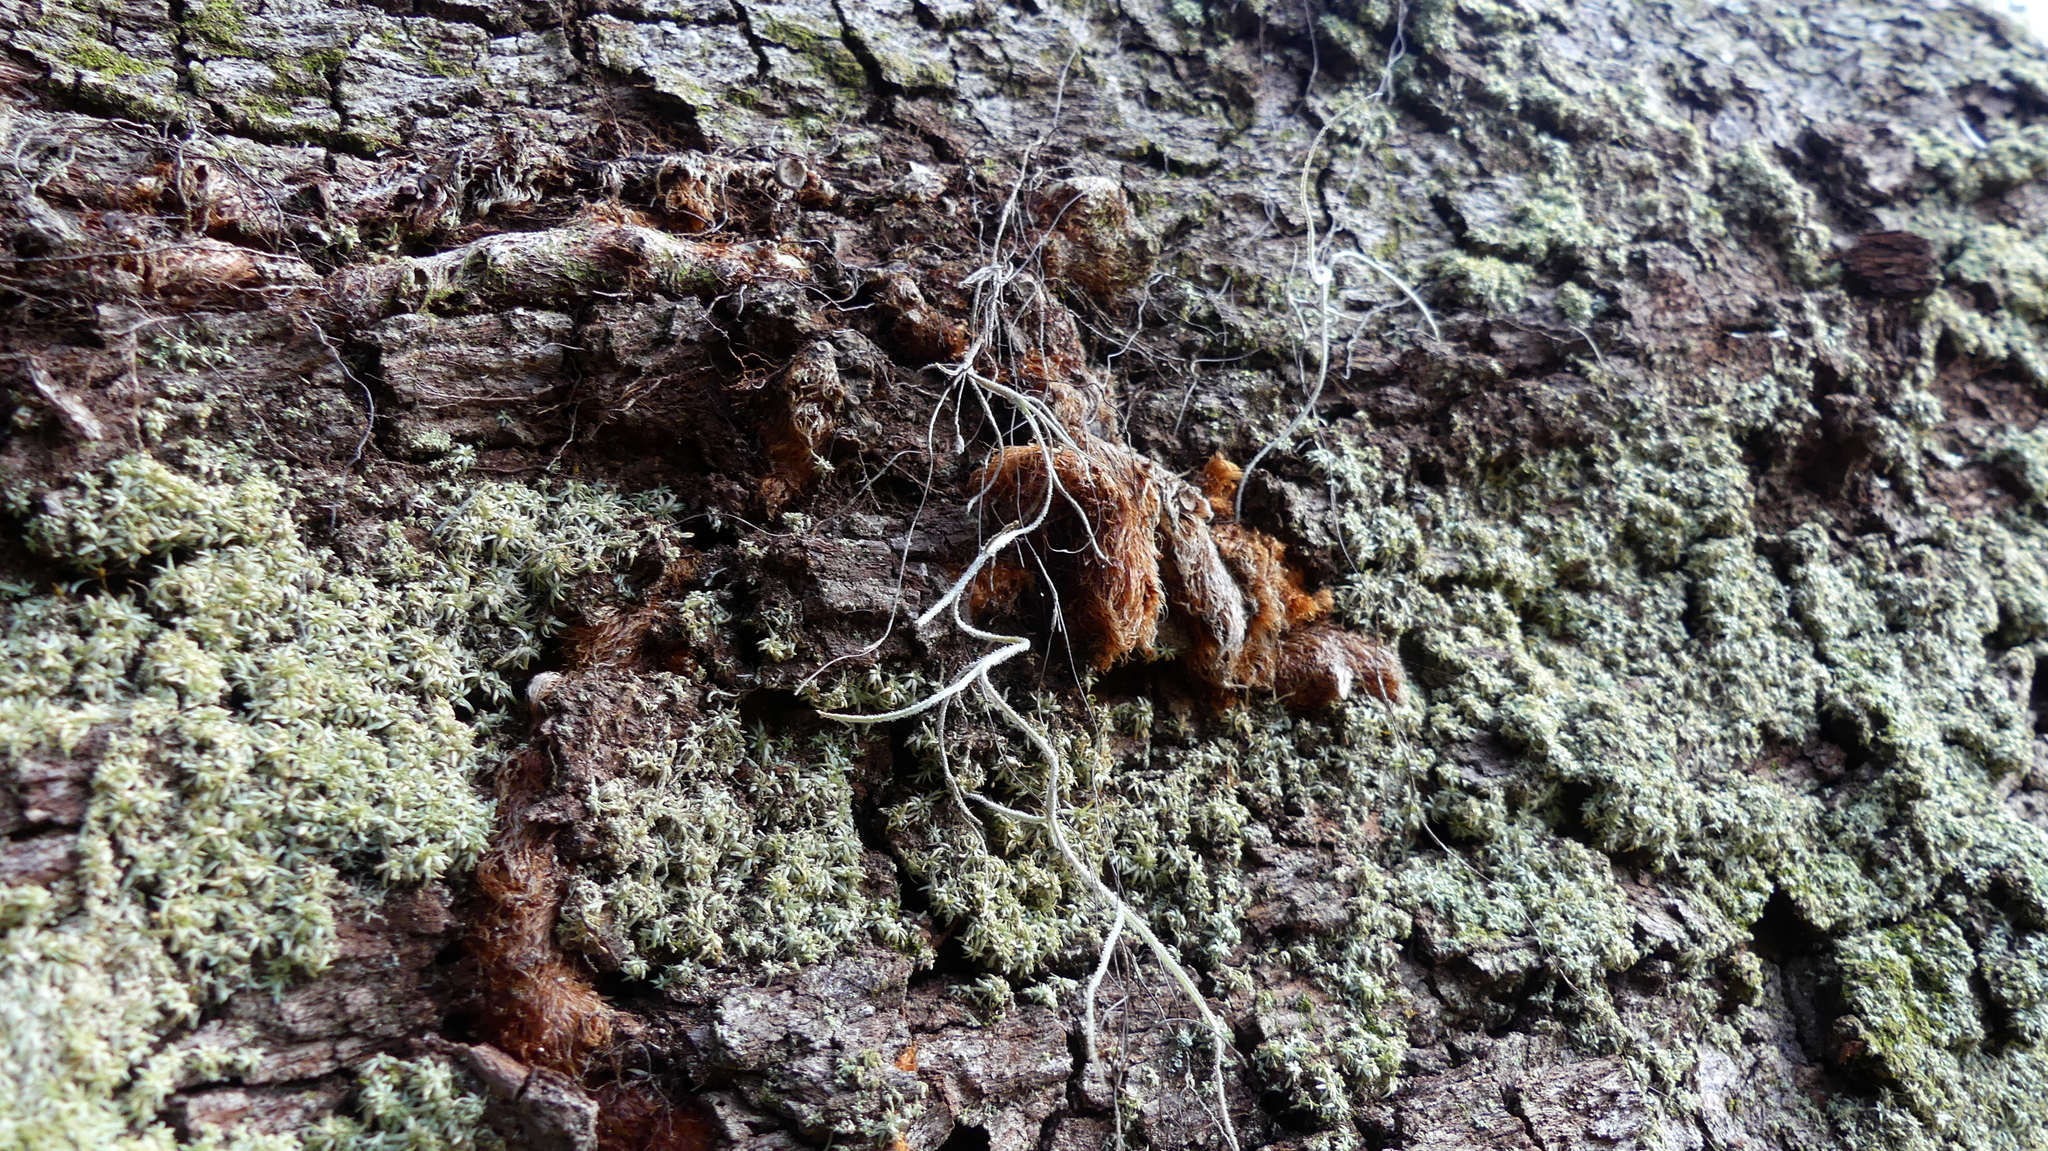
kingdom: Plantae
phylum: Tracheophyta
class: Polypodiopsida
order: Polypodiales
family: Polypodiaceae
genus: Phlebodium
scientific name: Phlebodium aureum
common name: Gold-foot fern
